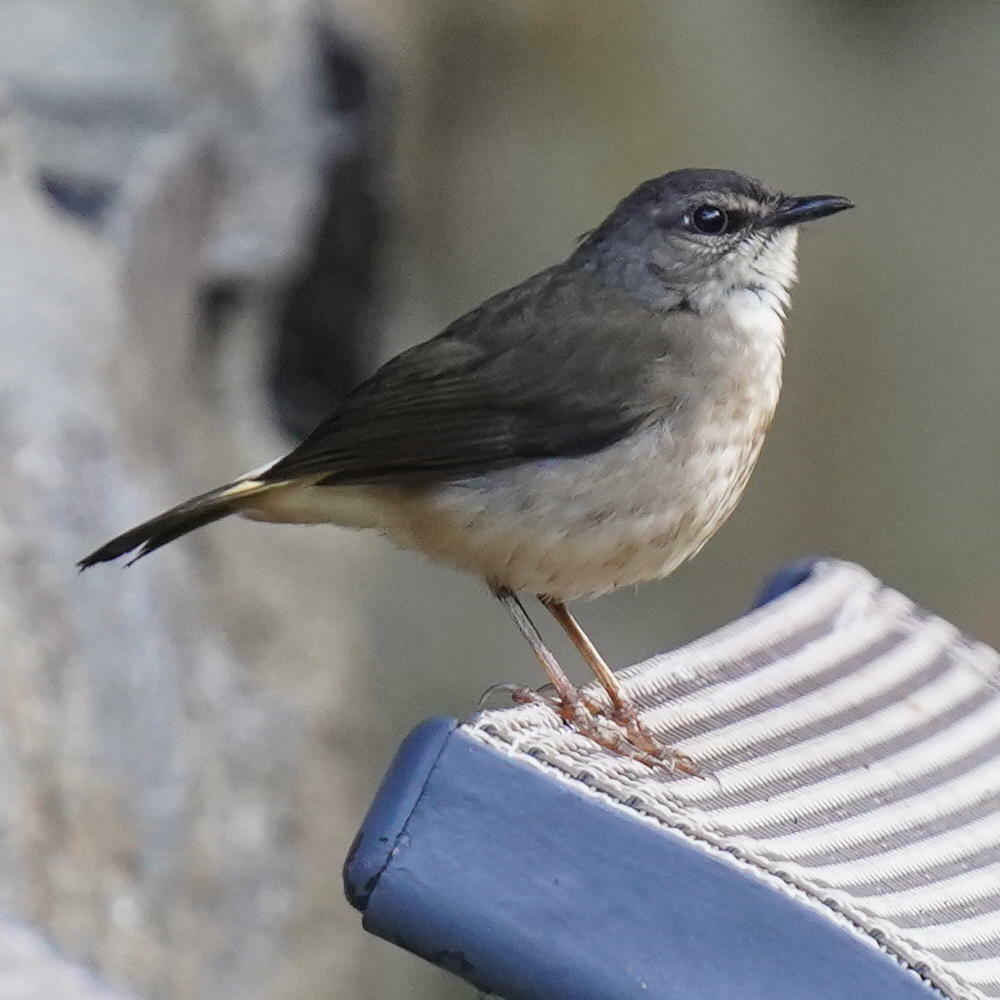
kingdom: Animalia
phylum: Chordata
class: Aves
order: Passeriformes
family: Parulidae
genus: Myiothlypis
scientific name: Myiothlypis fulvicauda
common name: Buff-rumped warbler
